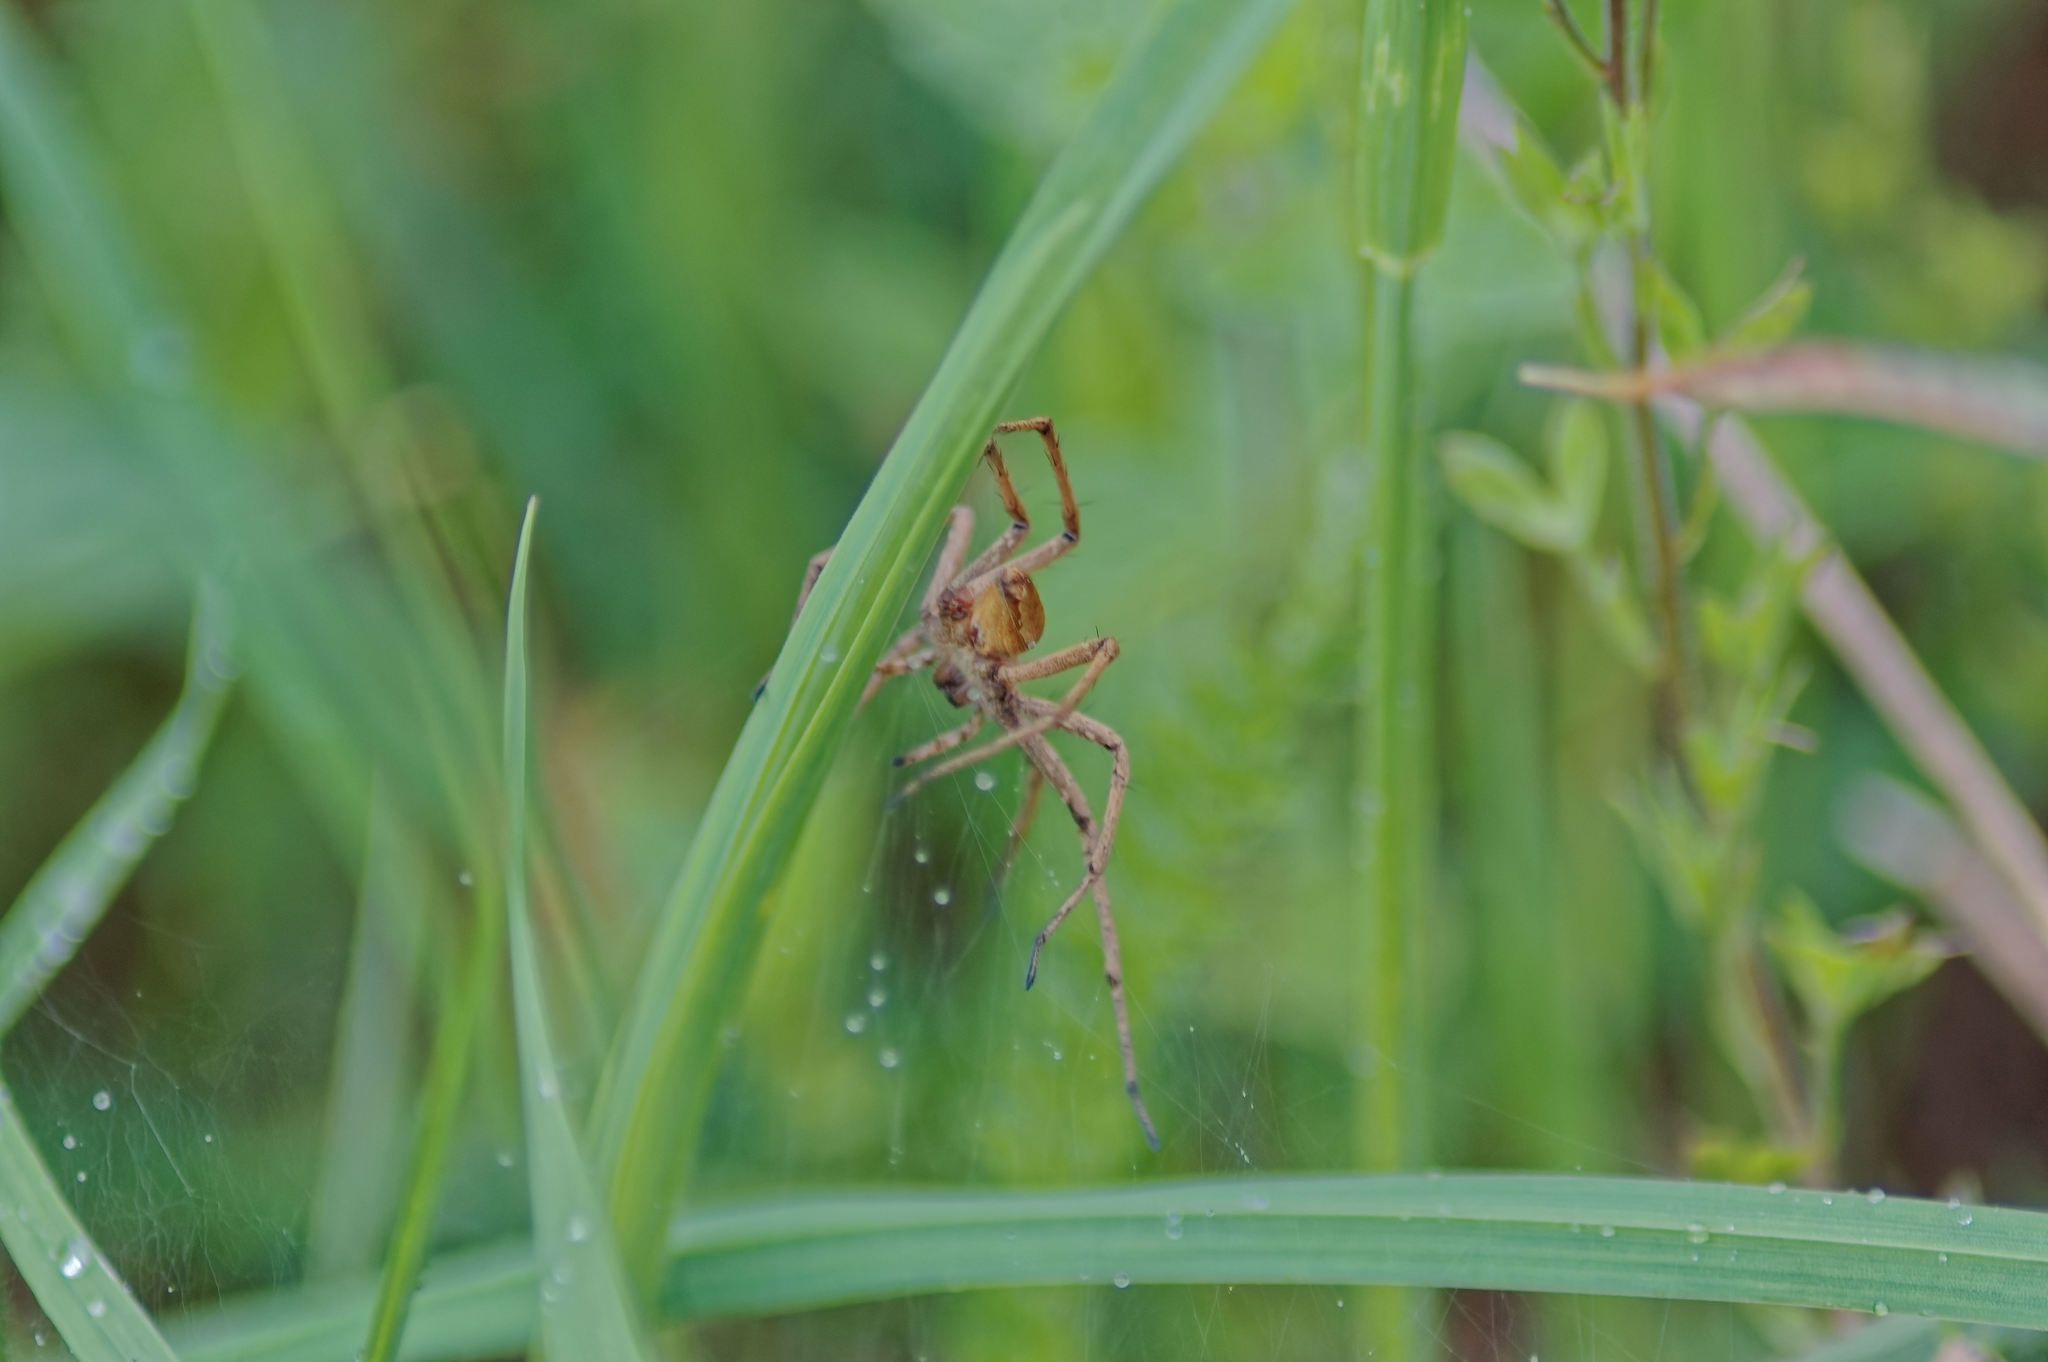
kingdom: Animalia
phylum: Arthropoda
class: Arachnida
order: Araneae
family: Pisauridae
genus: Pisaura
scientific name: Pisaura mirabilis
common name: Tent spider
